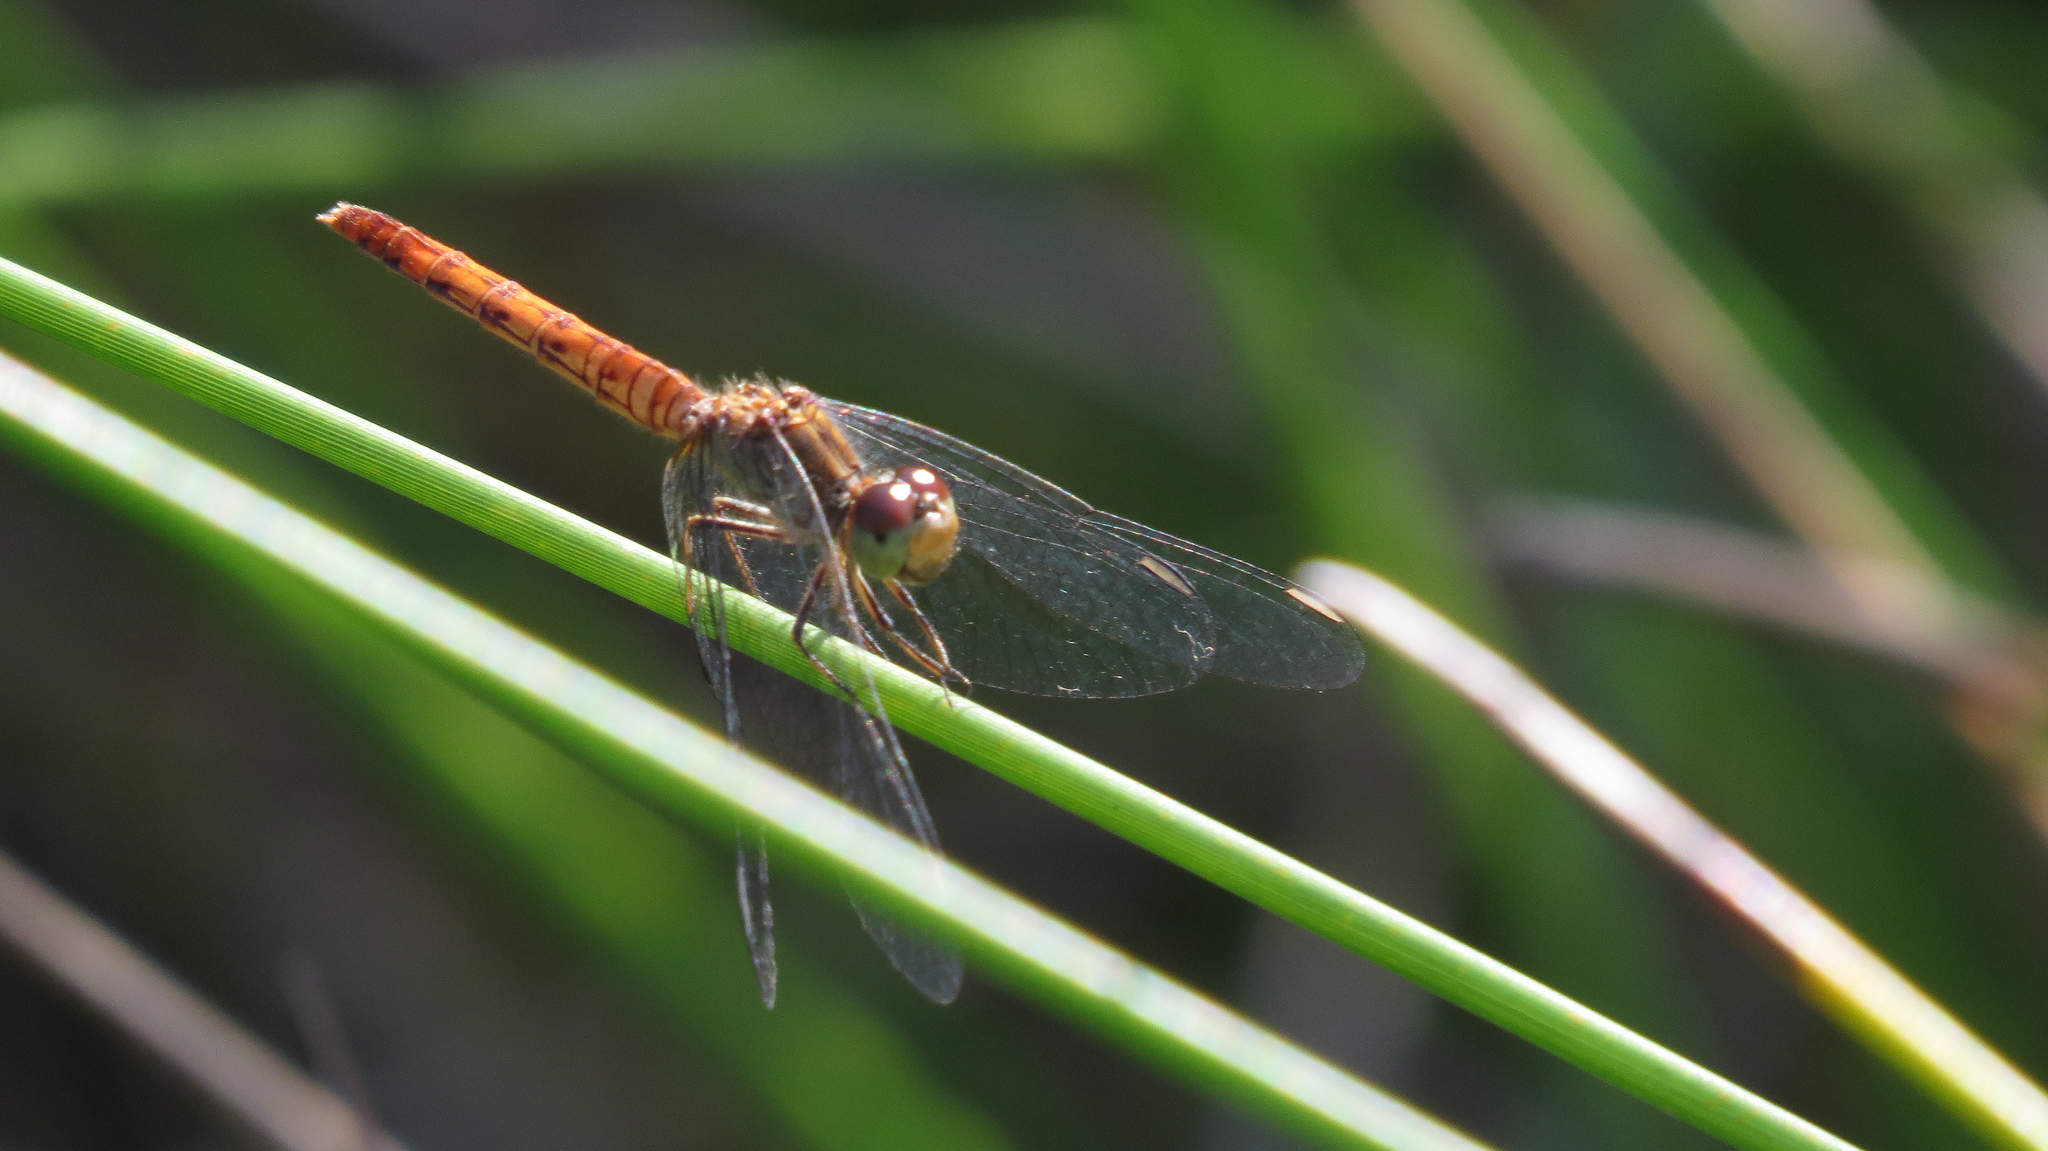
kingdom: Animalia
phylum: Arthropoda
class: Insecta
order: Odonata
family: Libellulidae
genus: Nannodiplax
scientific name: Nannodiplax rubra
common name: Pygmy percher
